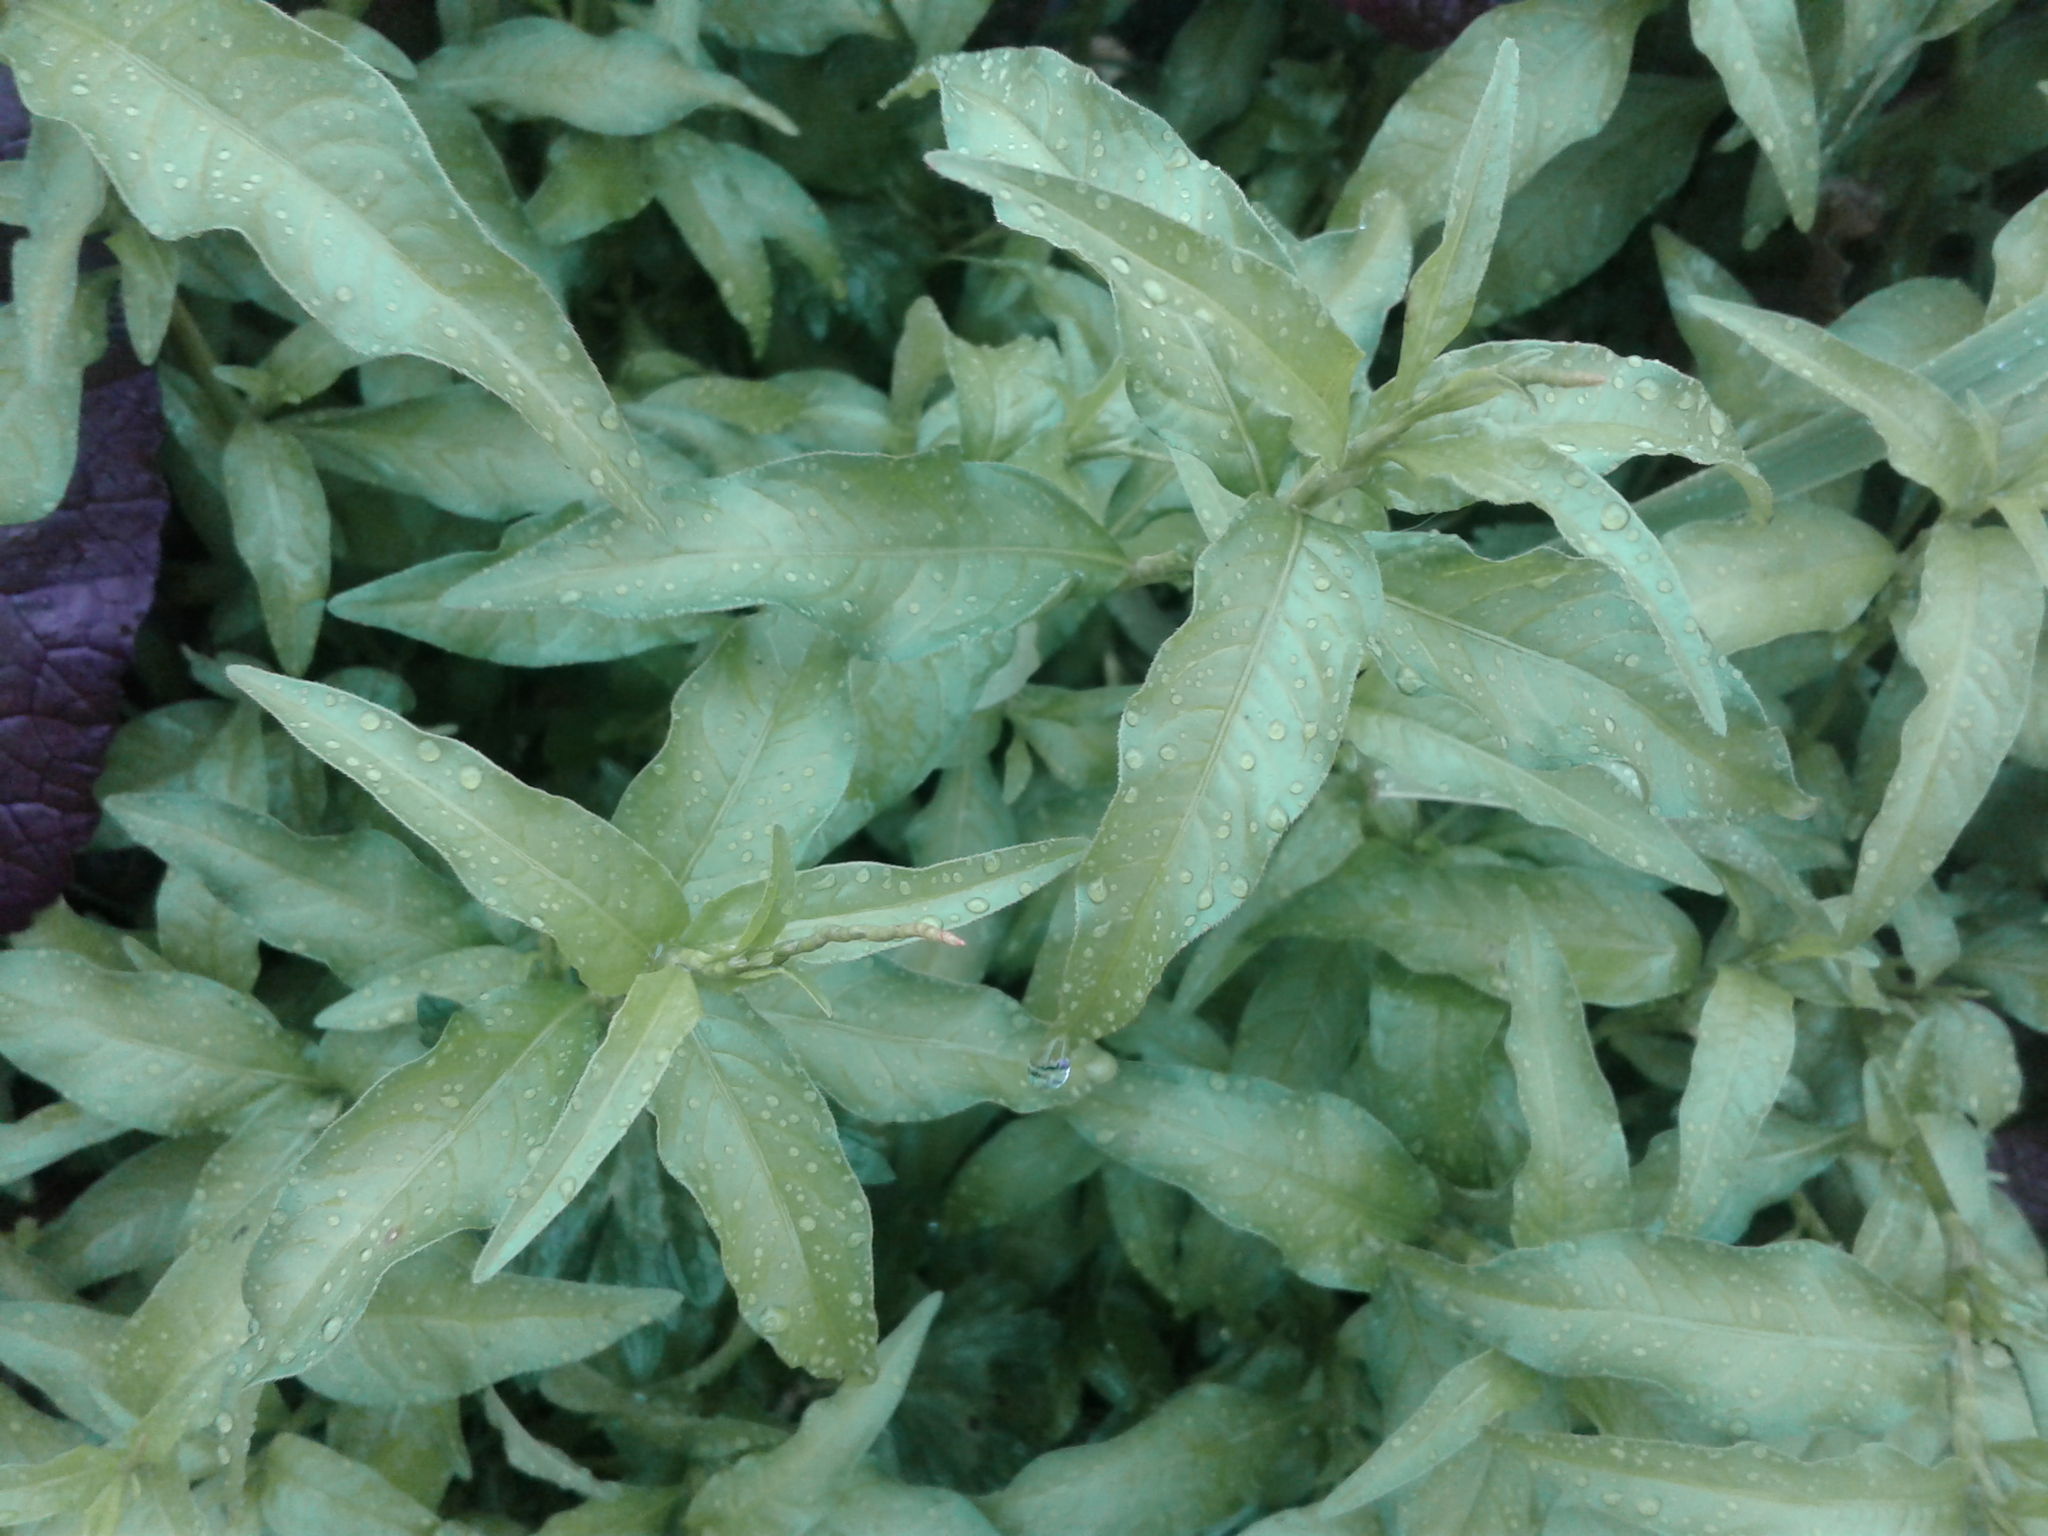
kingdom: Plantae
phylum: Tracheophyta
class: Magnoliopsida
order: Caryophyllales
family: Polygonaceae
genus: Persicaria
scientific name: Persicaria decipiens
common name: Willow-weed
